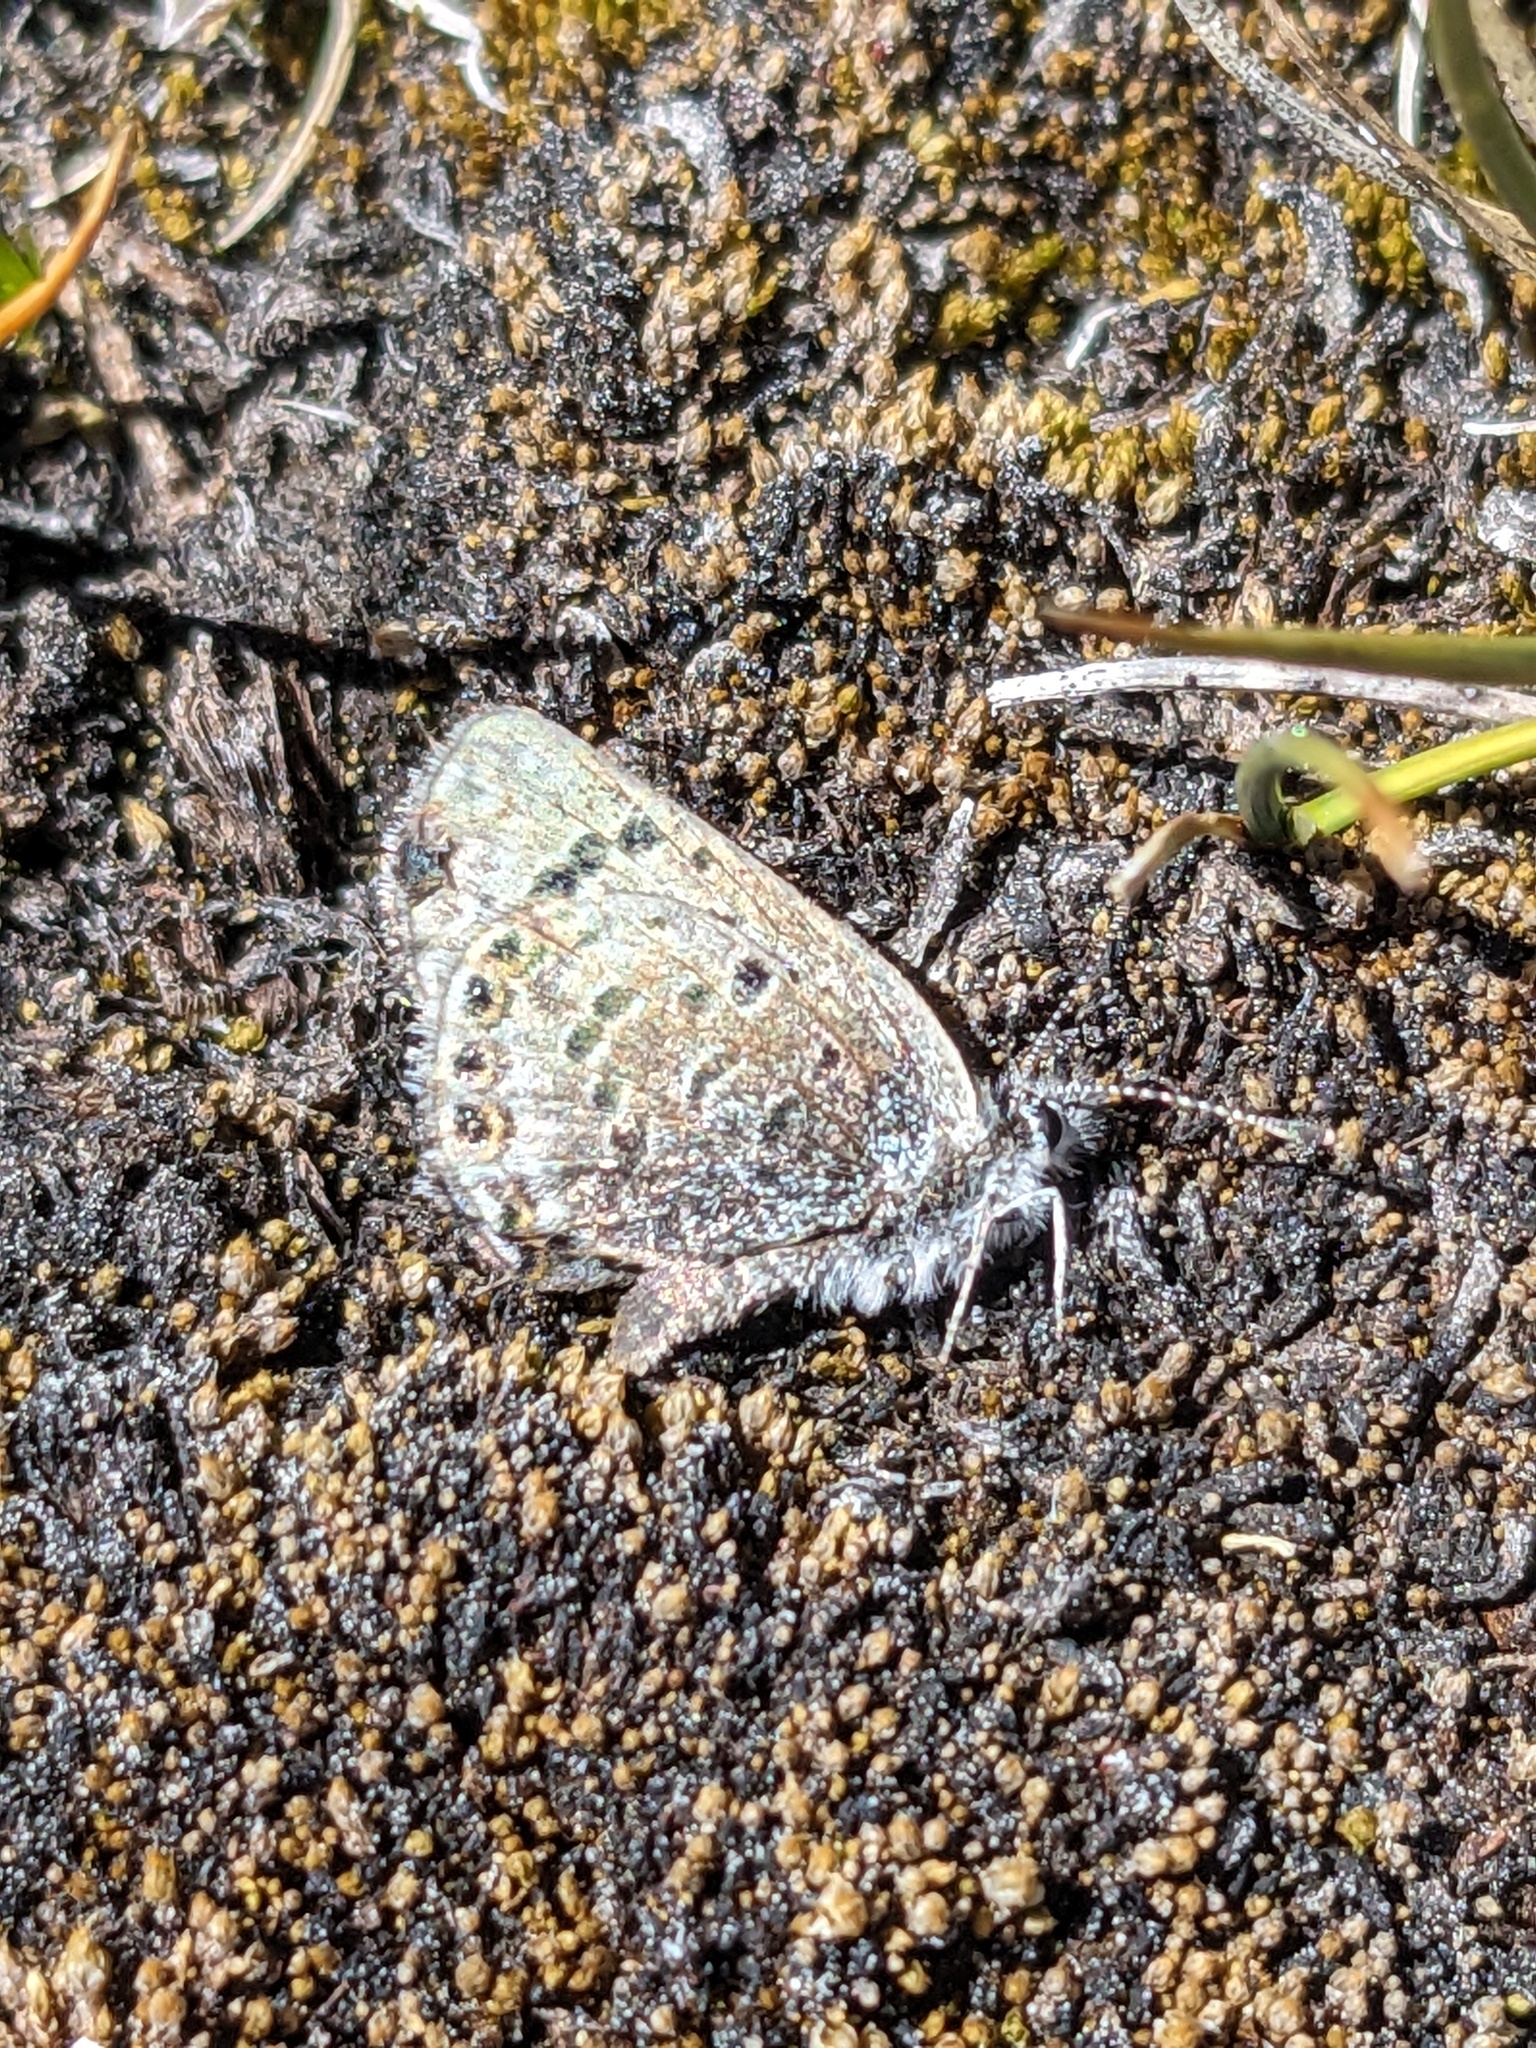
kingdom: Animalia
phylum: Arthropoda
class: Insecta
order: Lepidoptera
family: Lycaenidae
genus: Icaricia
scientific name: Icaricia shasta
